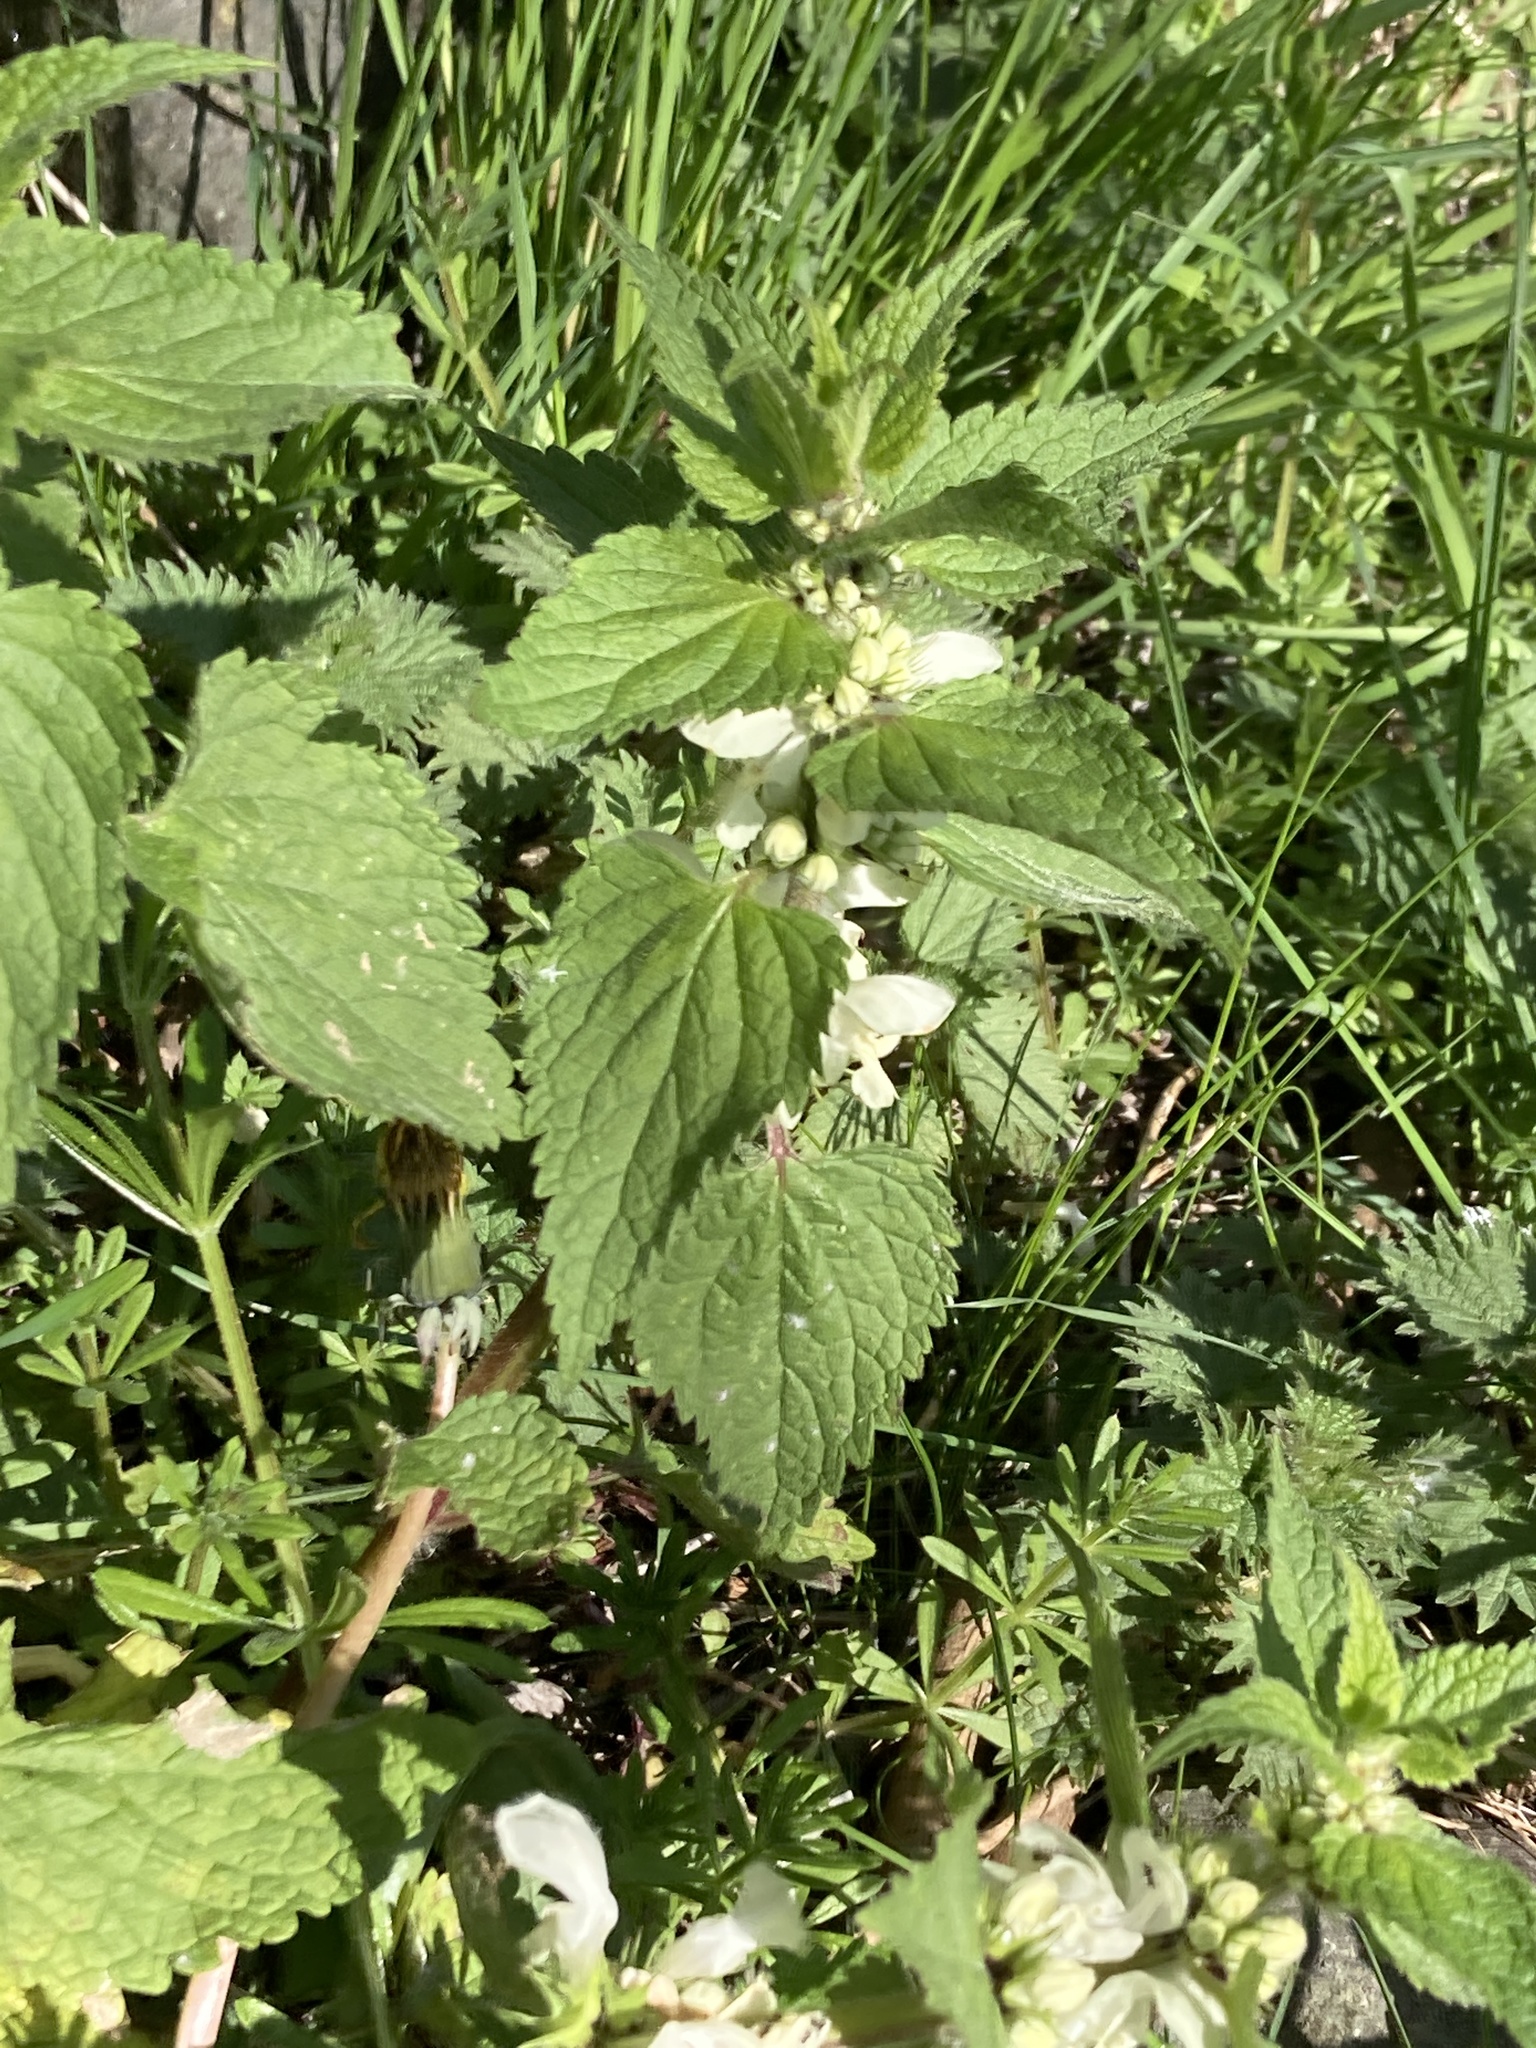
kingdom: Plantae
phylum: Tracheophyta
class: Magnoliopsida
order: Lamiales
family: Lamiaceae
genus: Lamium
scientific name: Lamium album
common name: White dead-nettle
